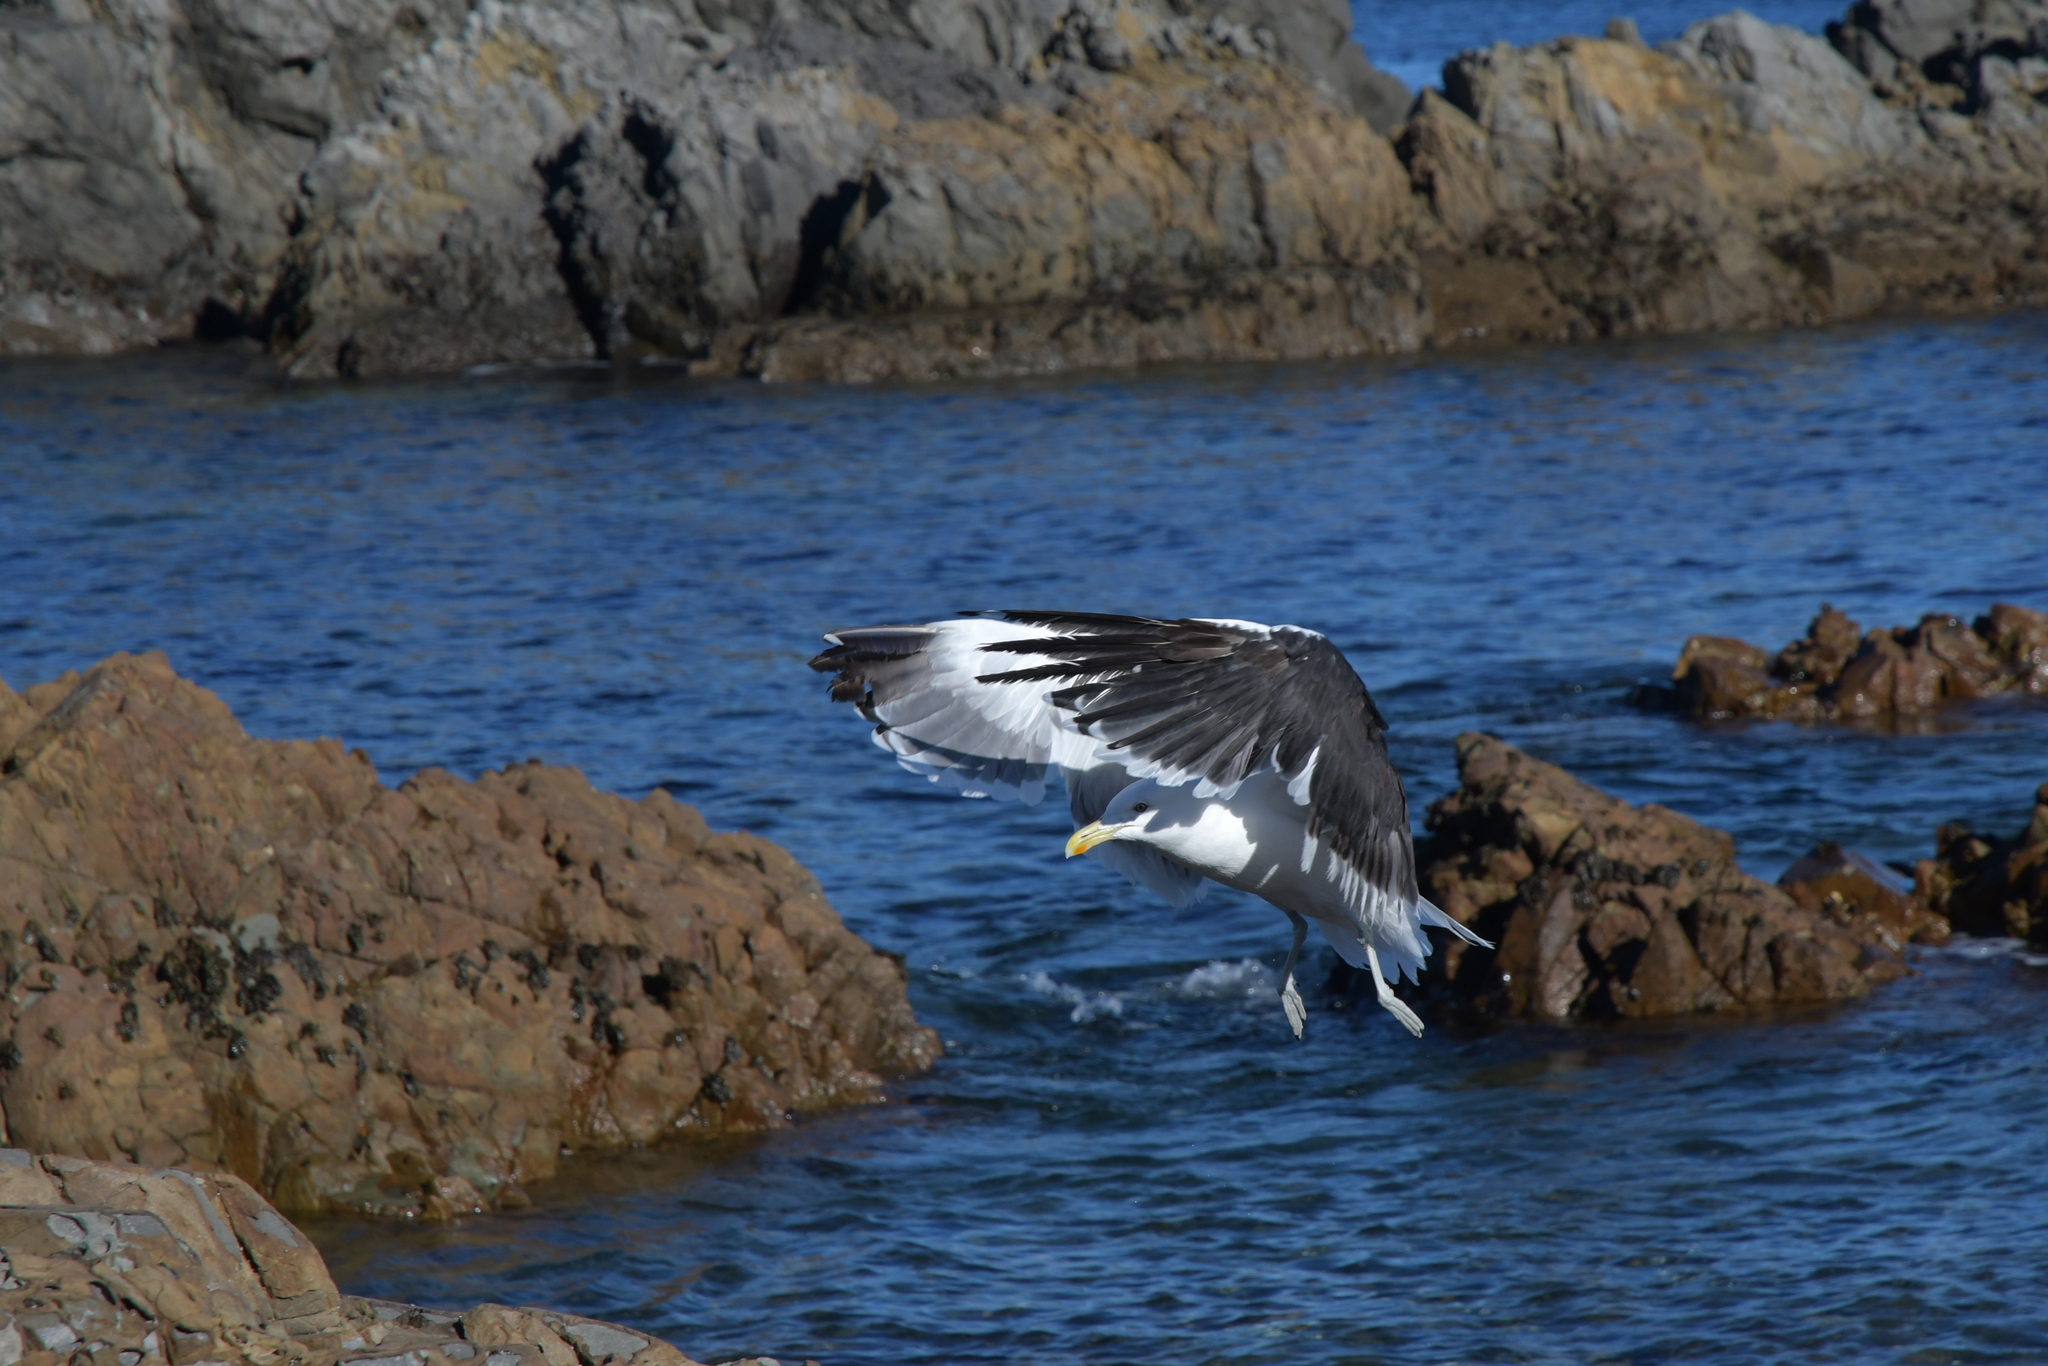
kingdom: Animalia
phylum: Chordata
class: Aves
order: Charadriiformes
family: Laridae
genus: Larus
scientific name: Larus dominicanus
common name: Kelp gull
